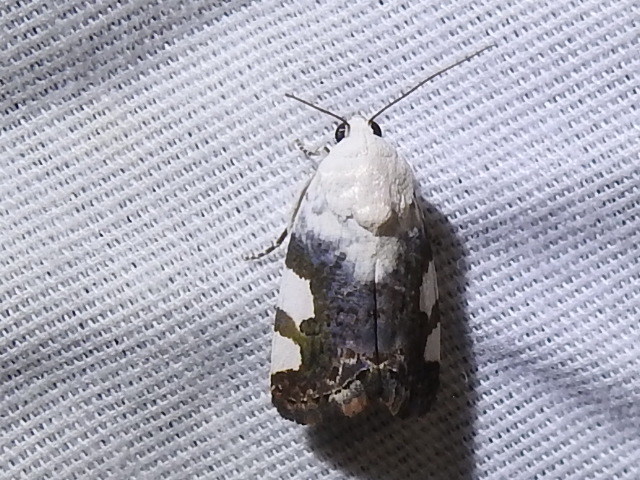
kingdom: Animalia
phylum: Arthropoda
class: Insecta
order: Lepidoptera
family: Noctuidae
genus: Acontia
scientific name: Acontia quadriplaga
